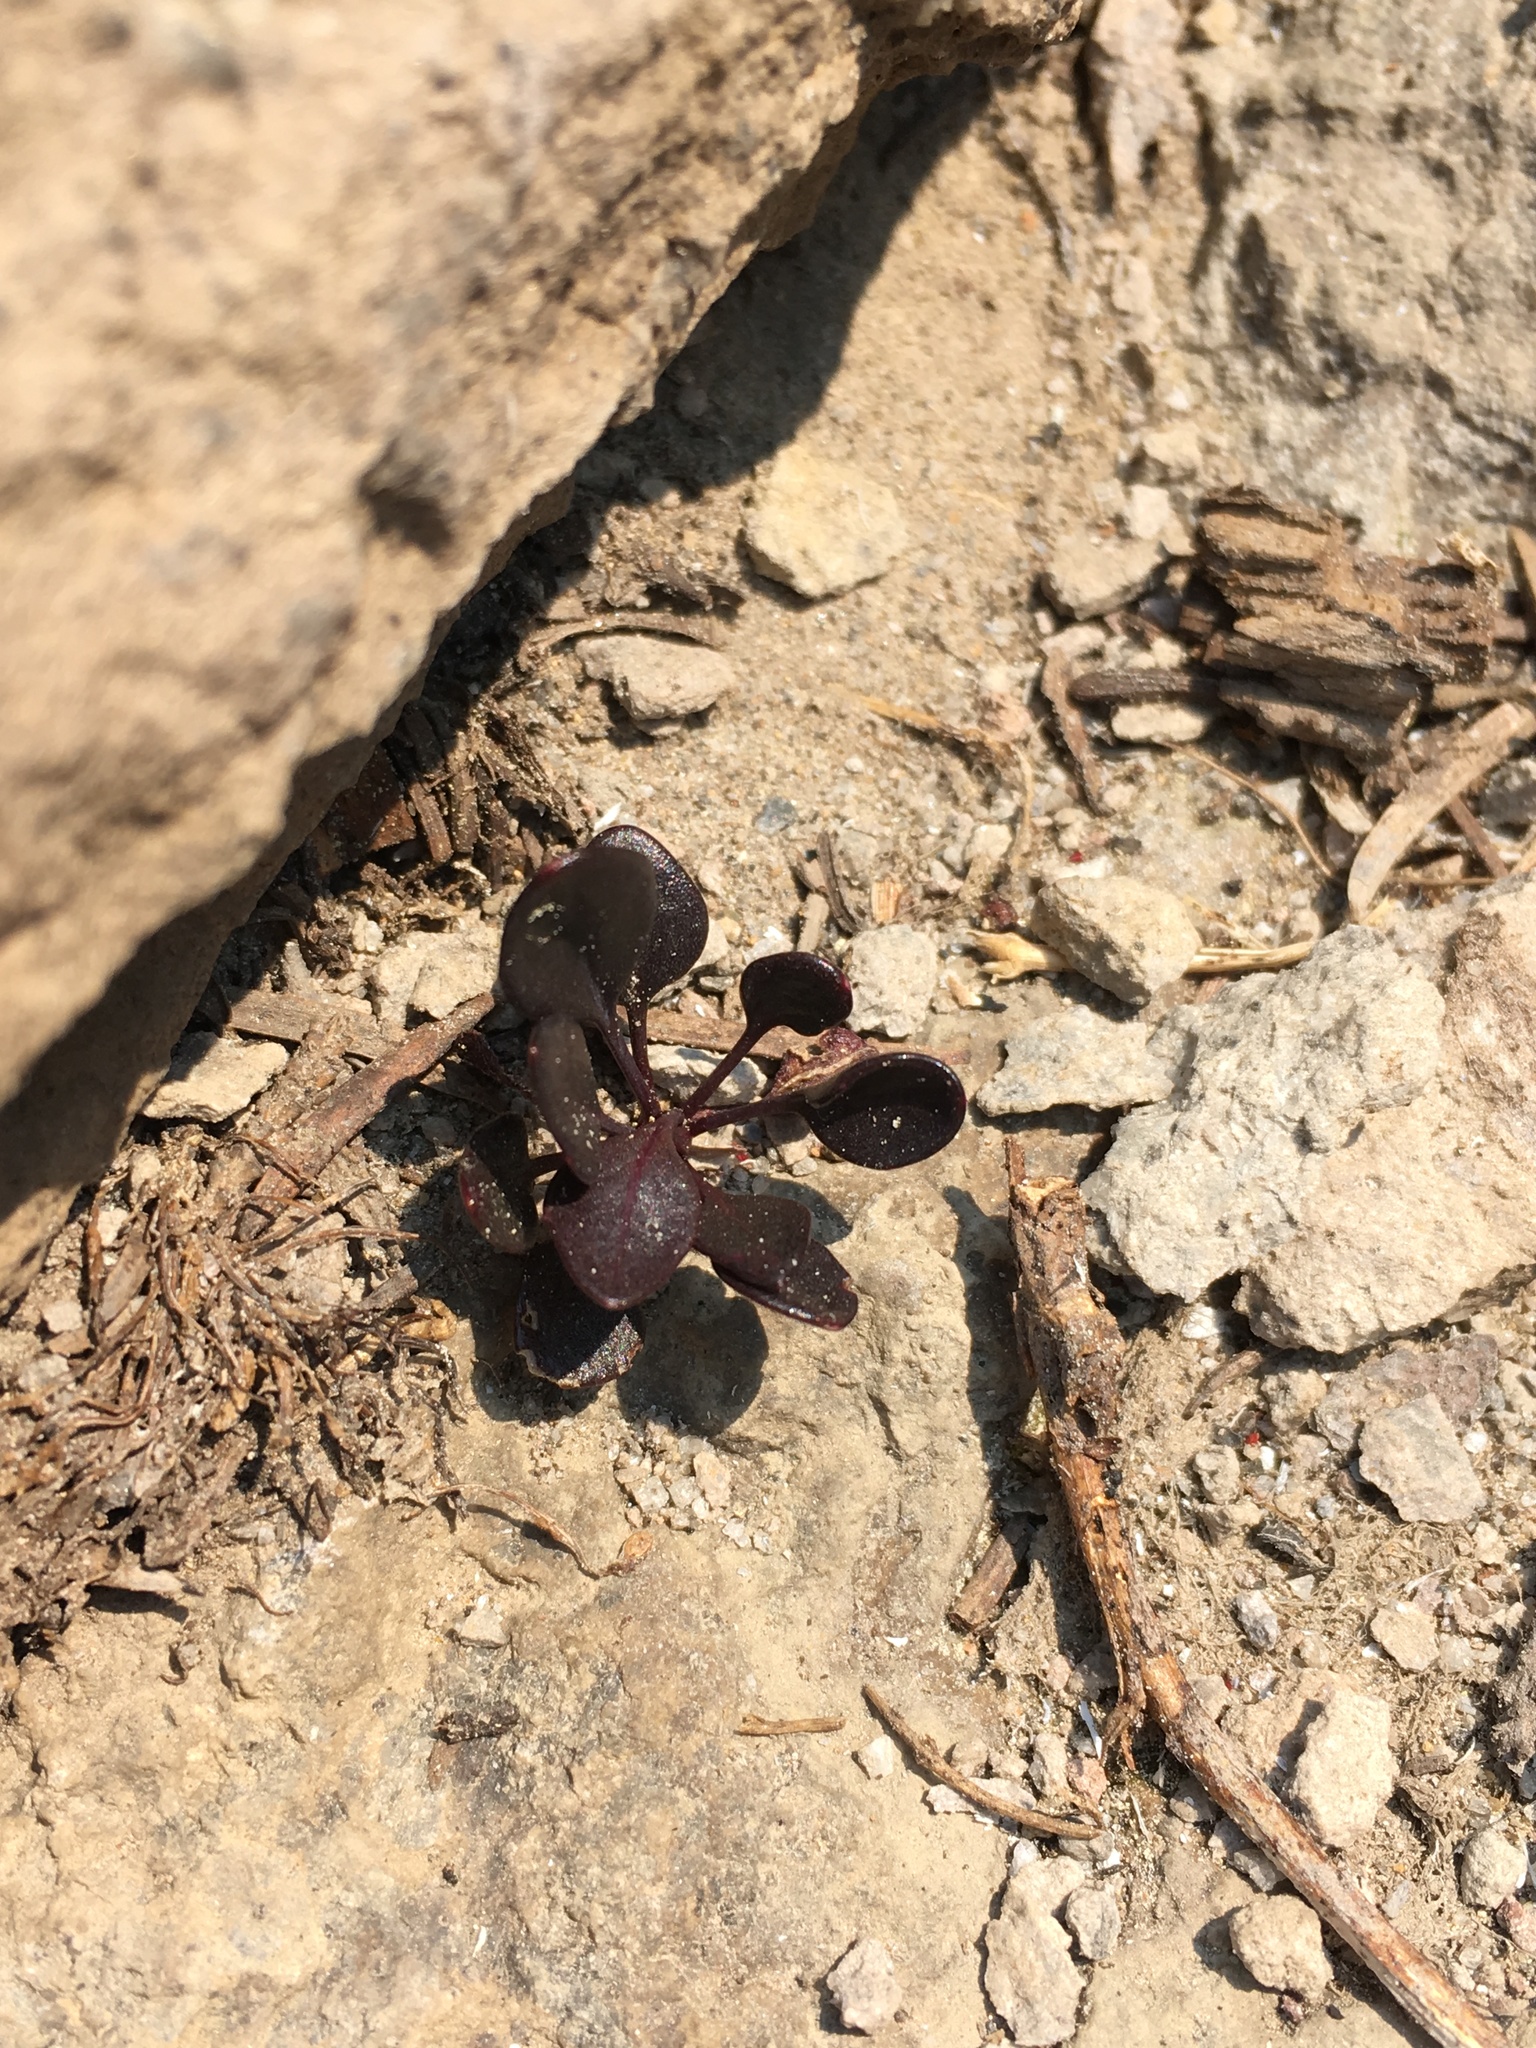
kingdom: Plantae
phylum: Tracheophyta
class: Magnoliopsida
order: Brassicales
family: Brassicaceae
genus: Cardamine
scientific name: Cardamine bellidifolia
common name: Alpine bittercress
